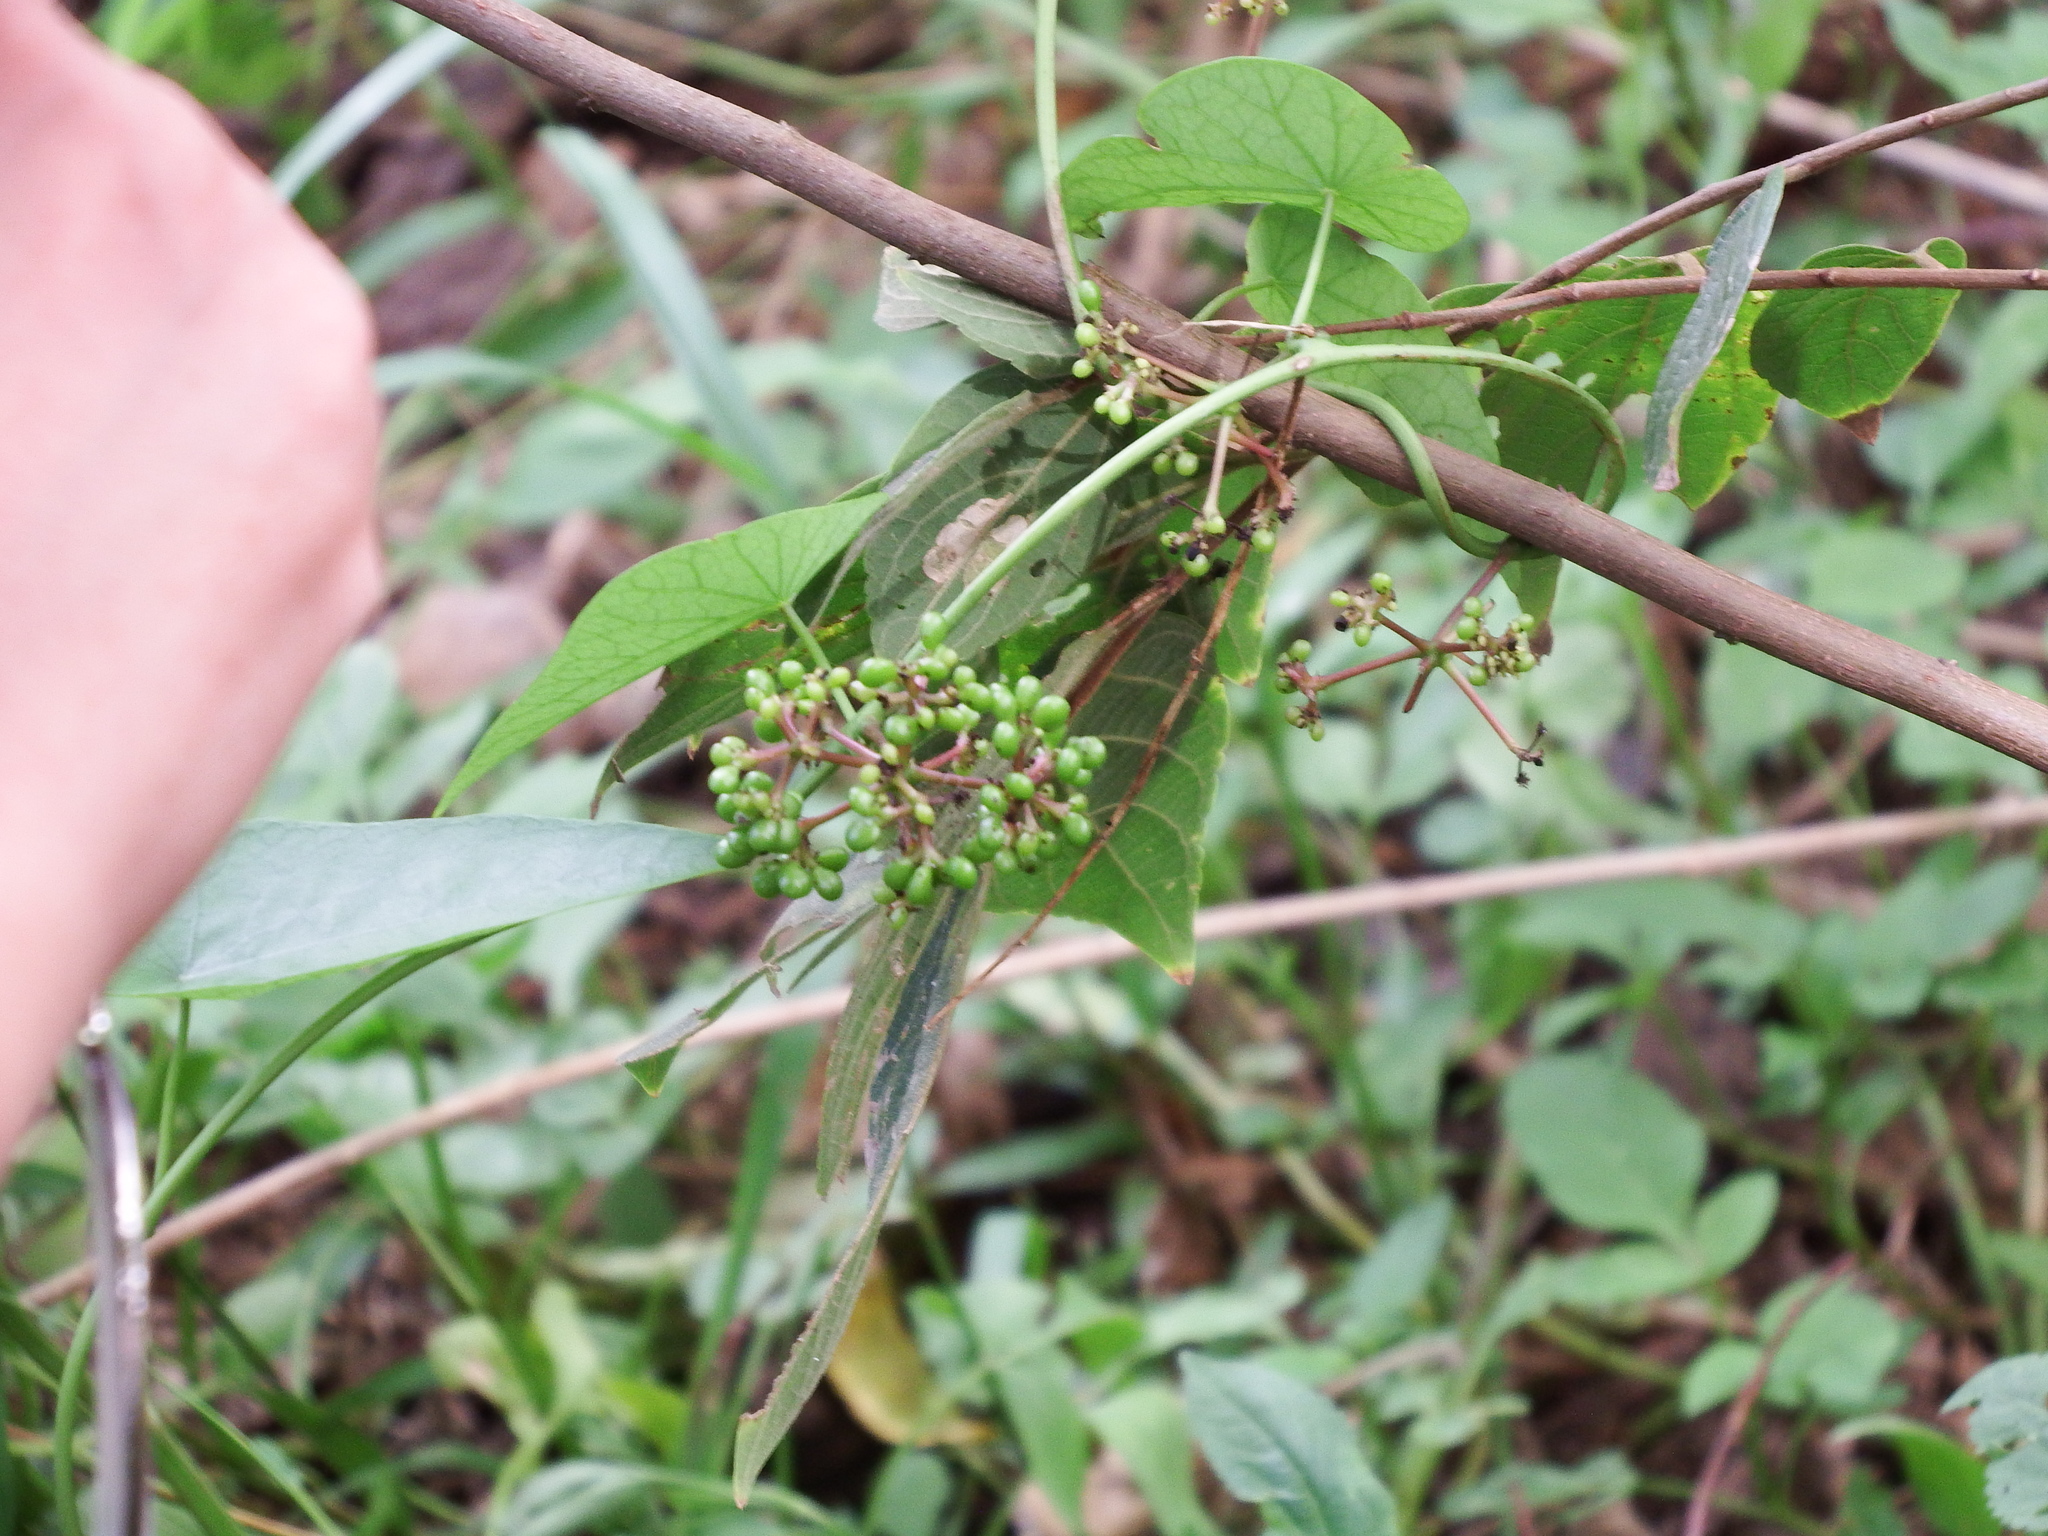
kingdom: Plantae
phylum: Tracheophyta
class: Magnoliopsida
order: Ranunculales
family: Menispermaceae
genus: Stephania
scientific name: Stephania japonica
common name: Snake vine
